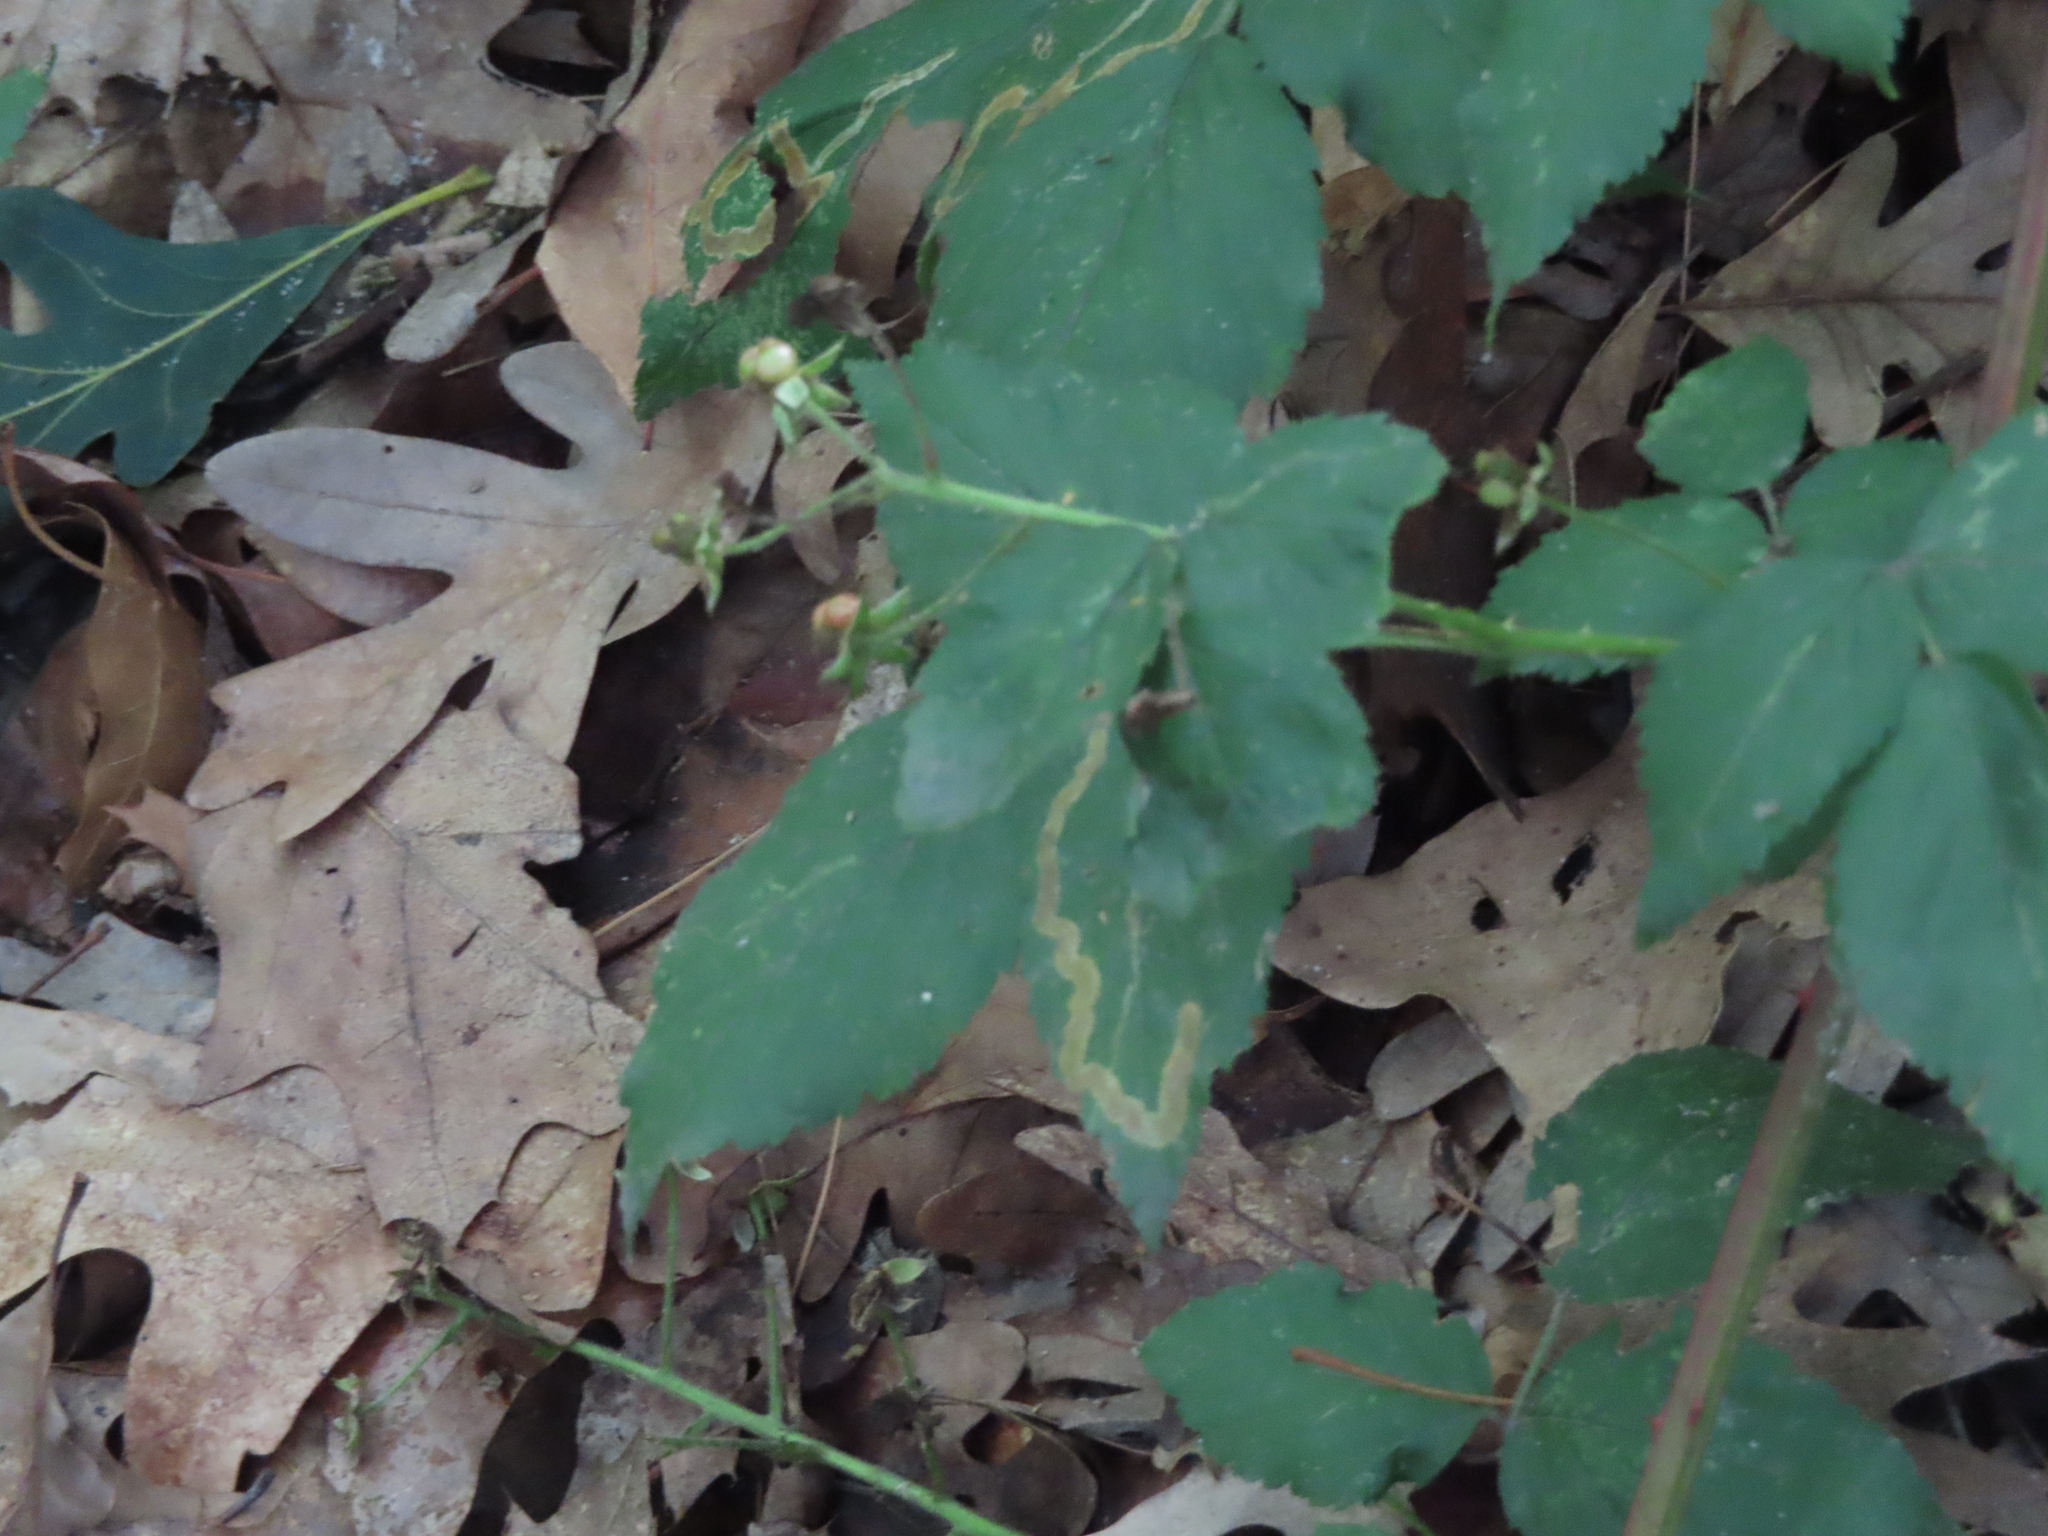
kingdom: Animalia
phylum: Arthropoda
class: Insecta
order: Diptera
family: Agromyzidae
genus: Agromyza
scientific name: Agromyza vockerothi
